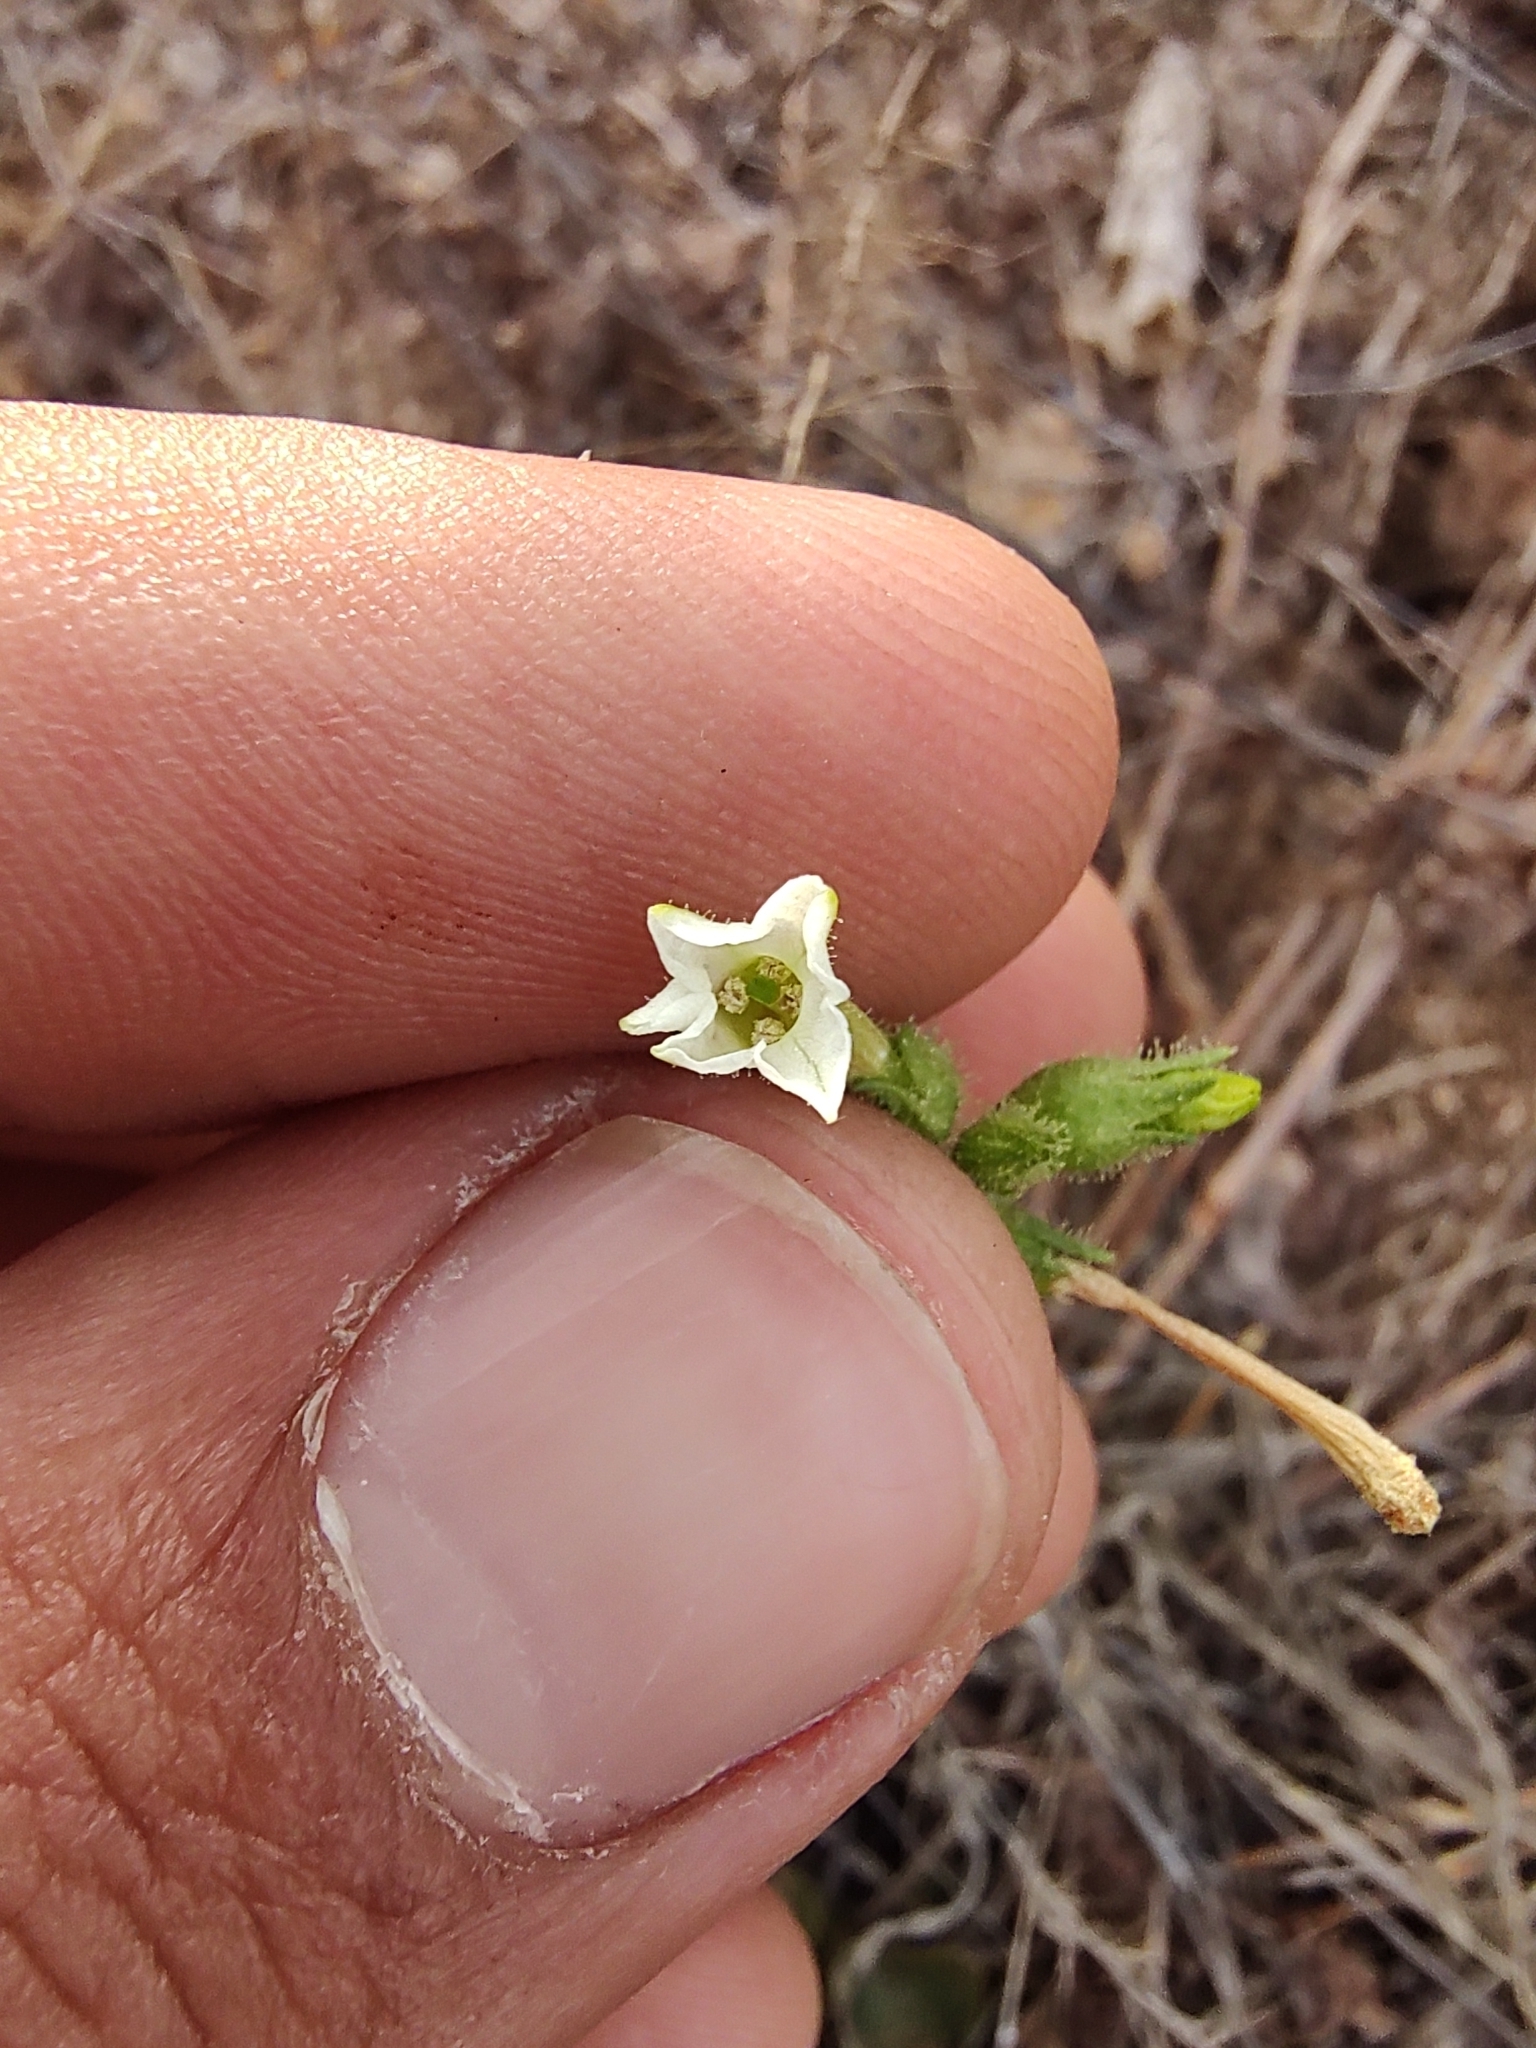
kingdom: Plantae
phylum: Tracheophyta
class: Magnoliopsida
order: Solanales
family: Solanaceae
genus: Nicotiana
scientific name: Nicotiana clevelandii
